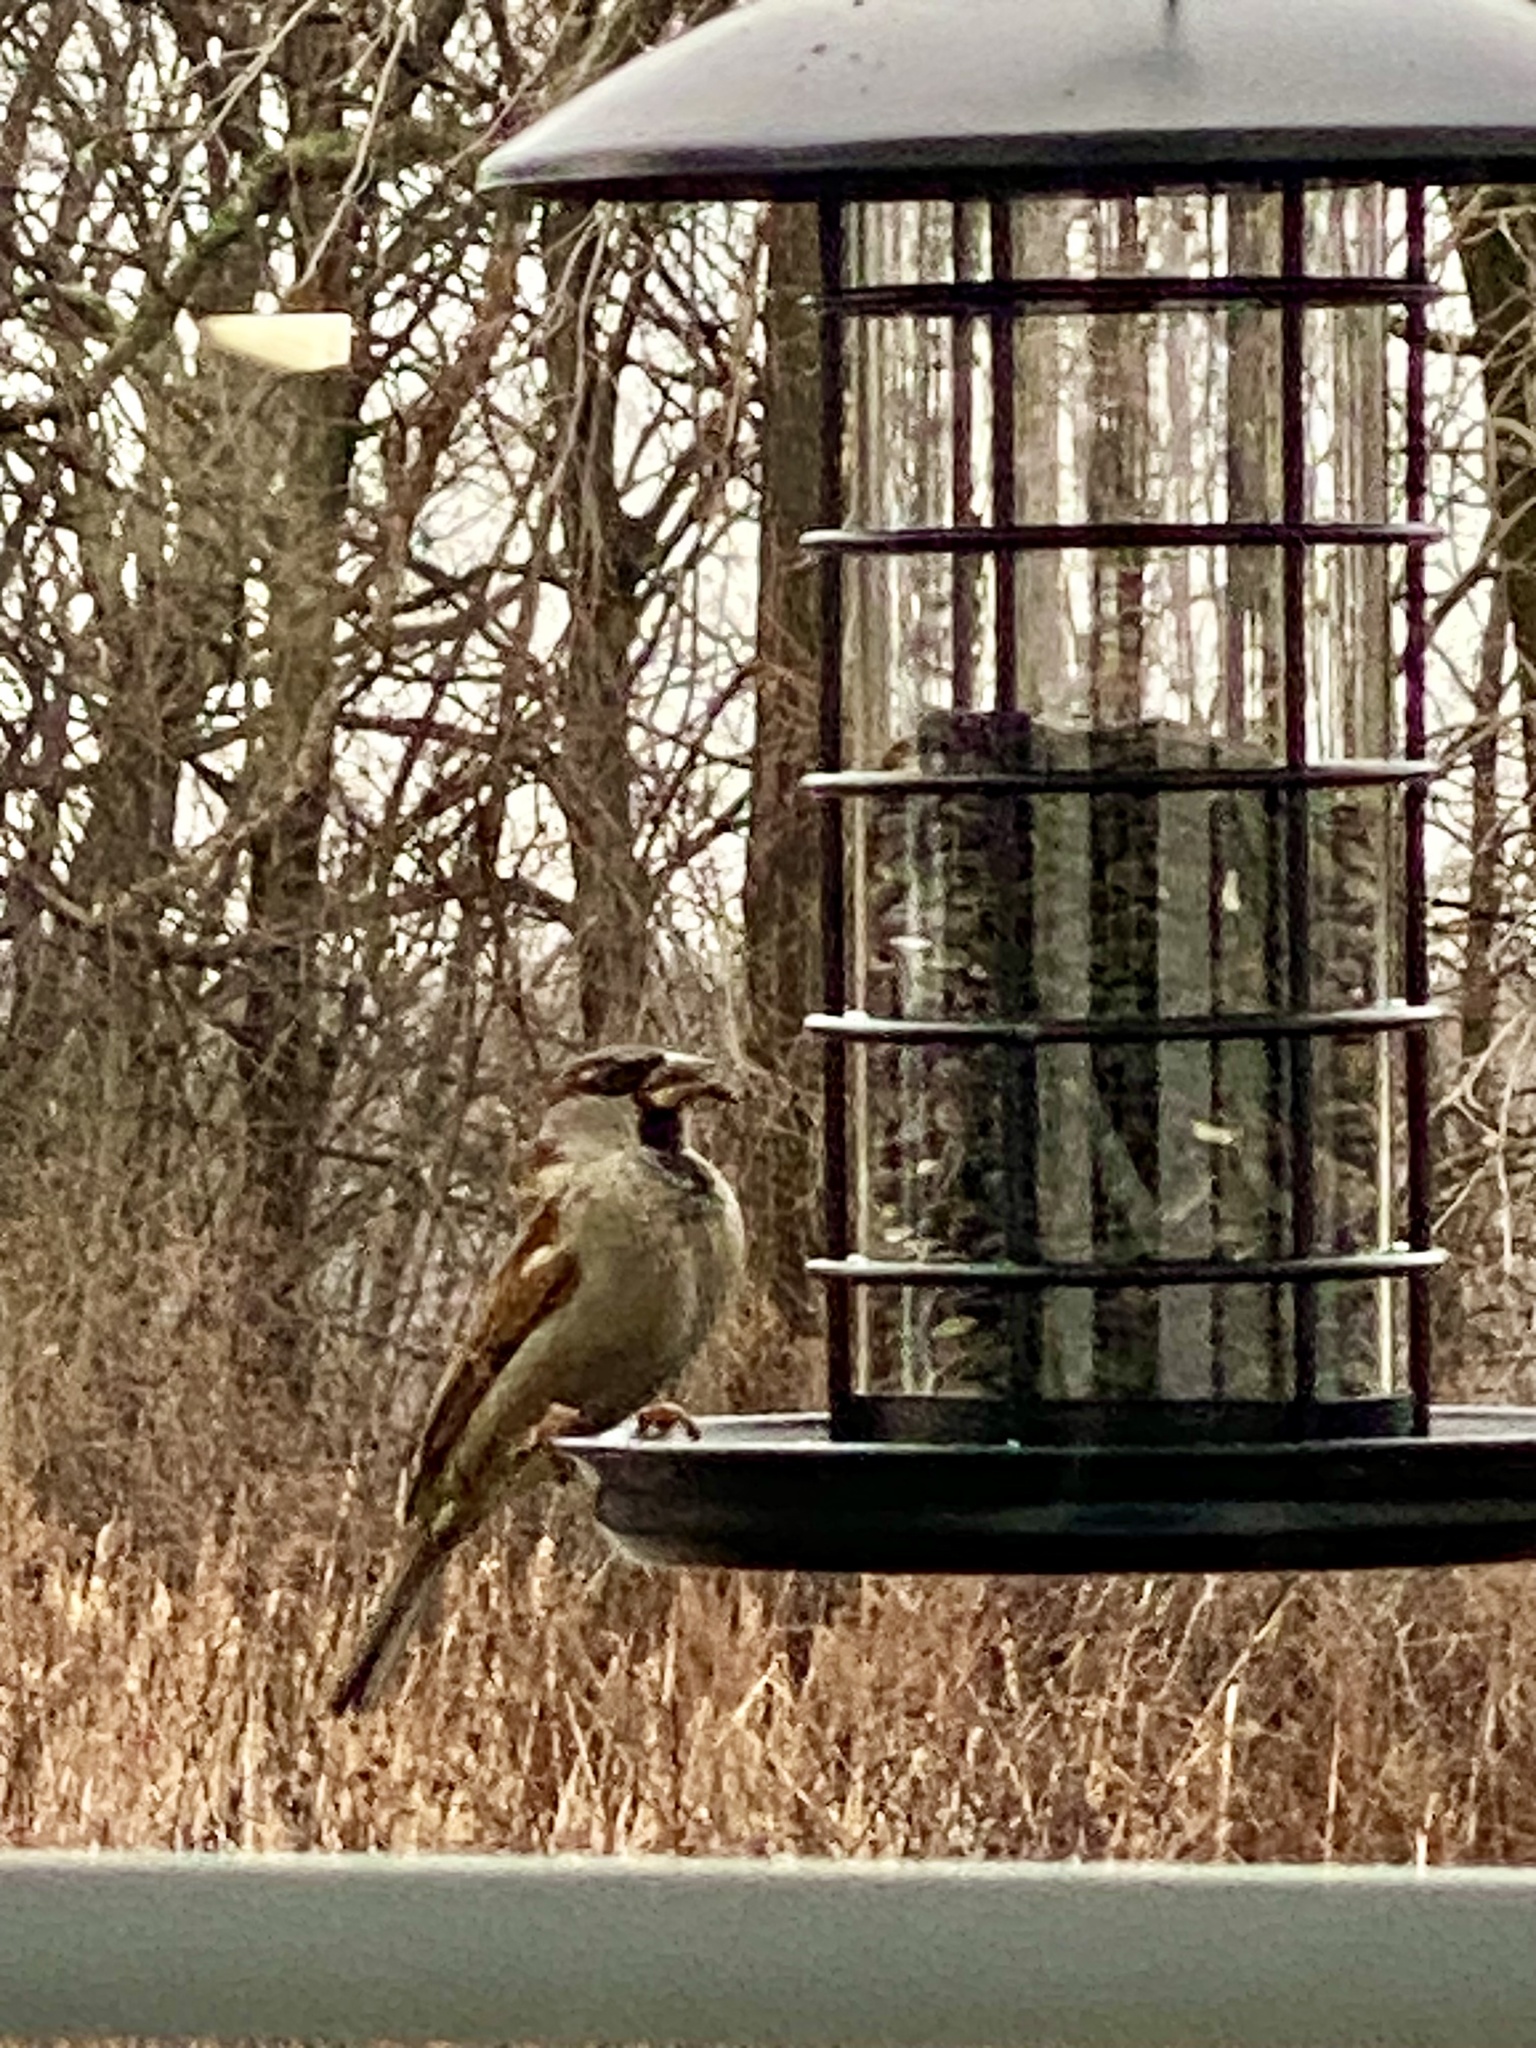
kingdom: Animalia
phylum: Chordata
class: Aves
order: Passeriformes
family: Passeridae
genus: Passer
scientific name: Passer domesticus
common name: House sparrow
